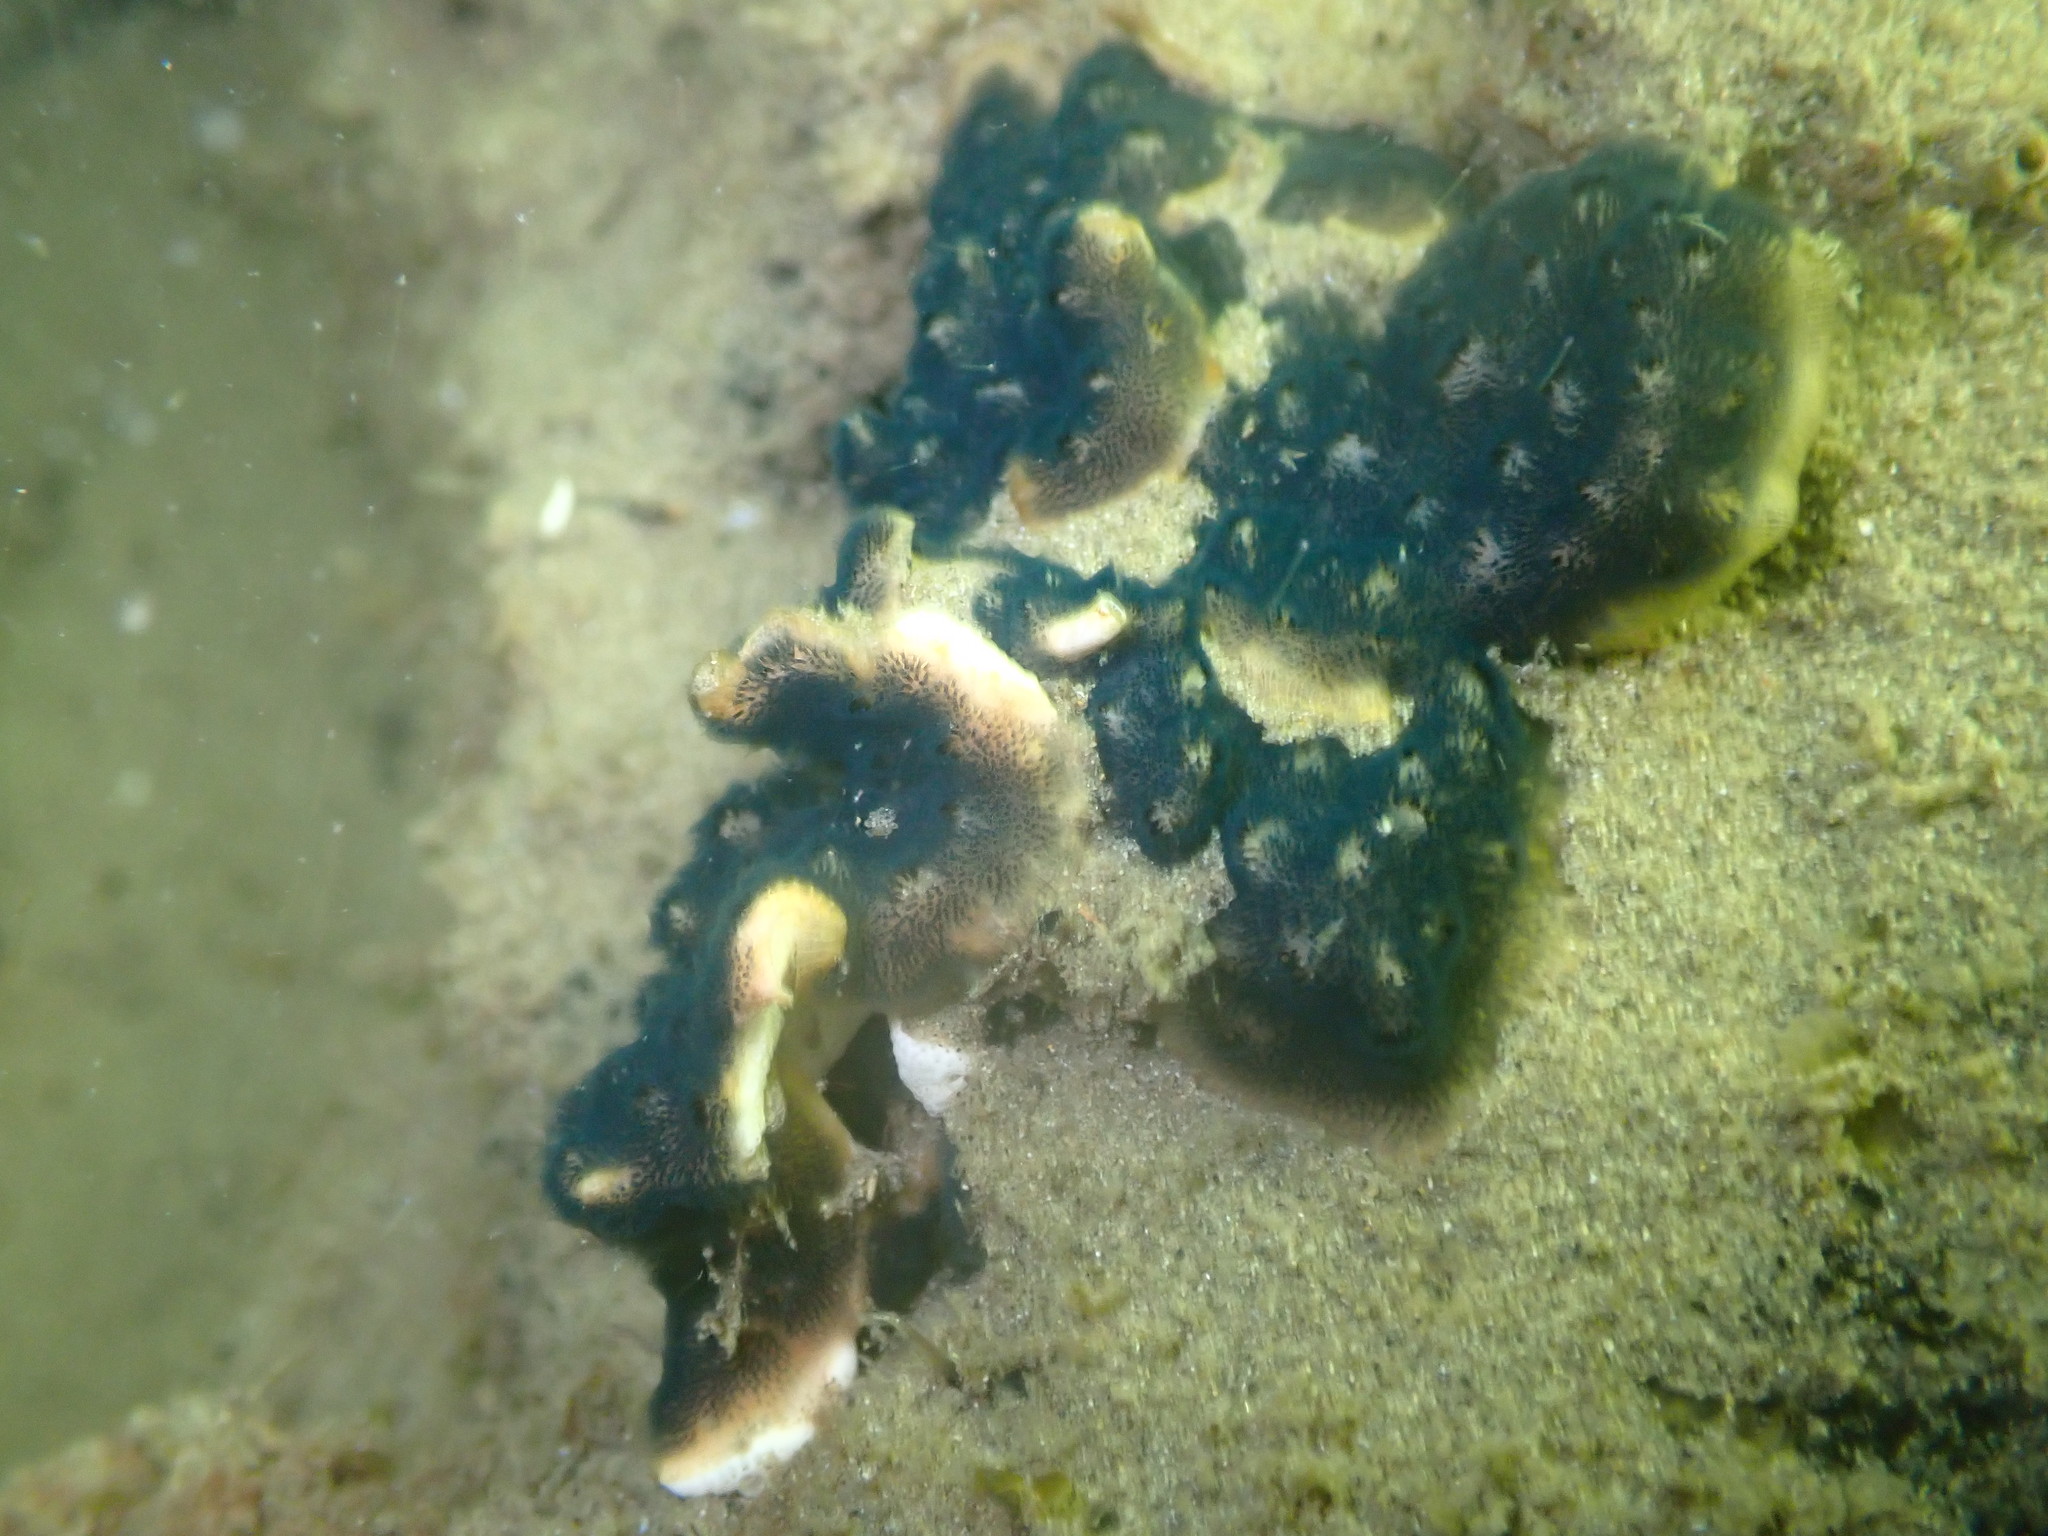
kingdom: Animalia
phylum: Bryozoa
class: Gymnolaemata
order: Cheilostomatida
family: Celleporidae
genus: Celleporaria
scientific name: Celleporaria nodulosa
